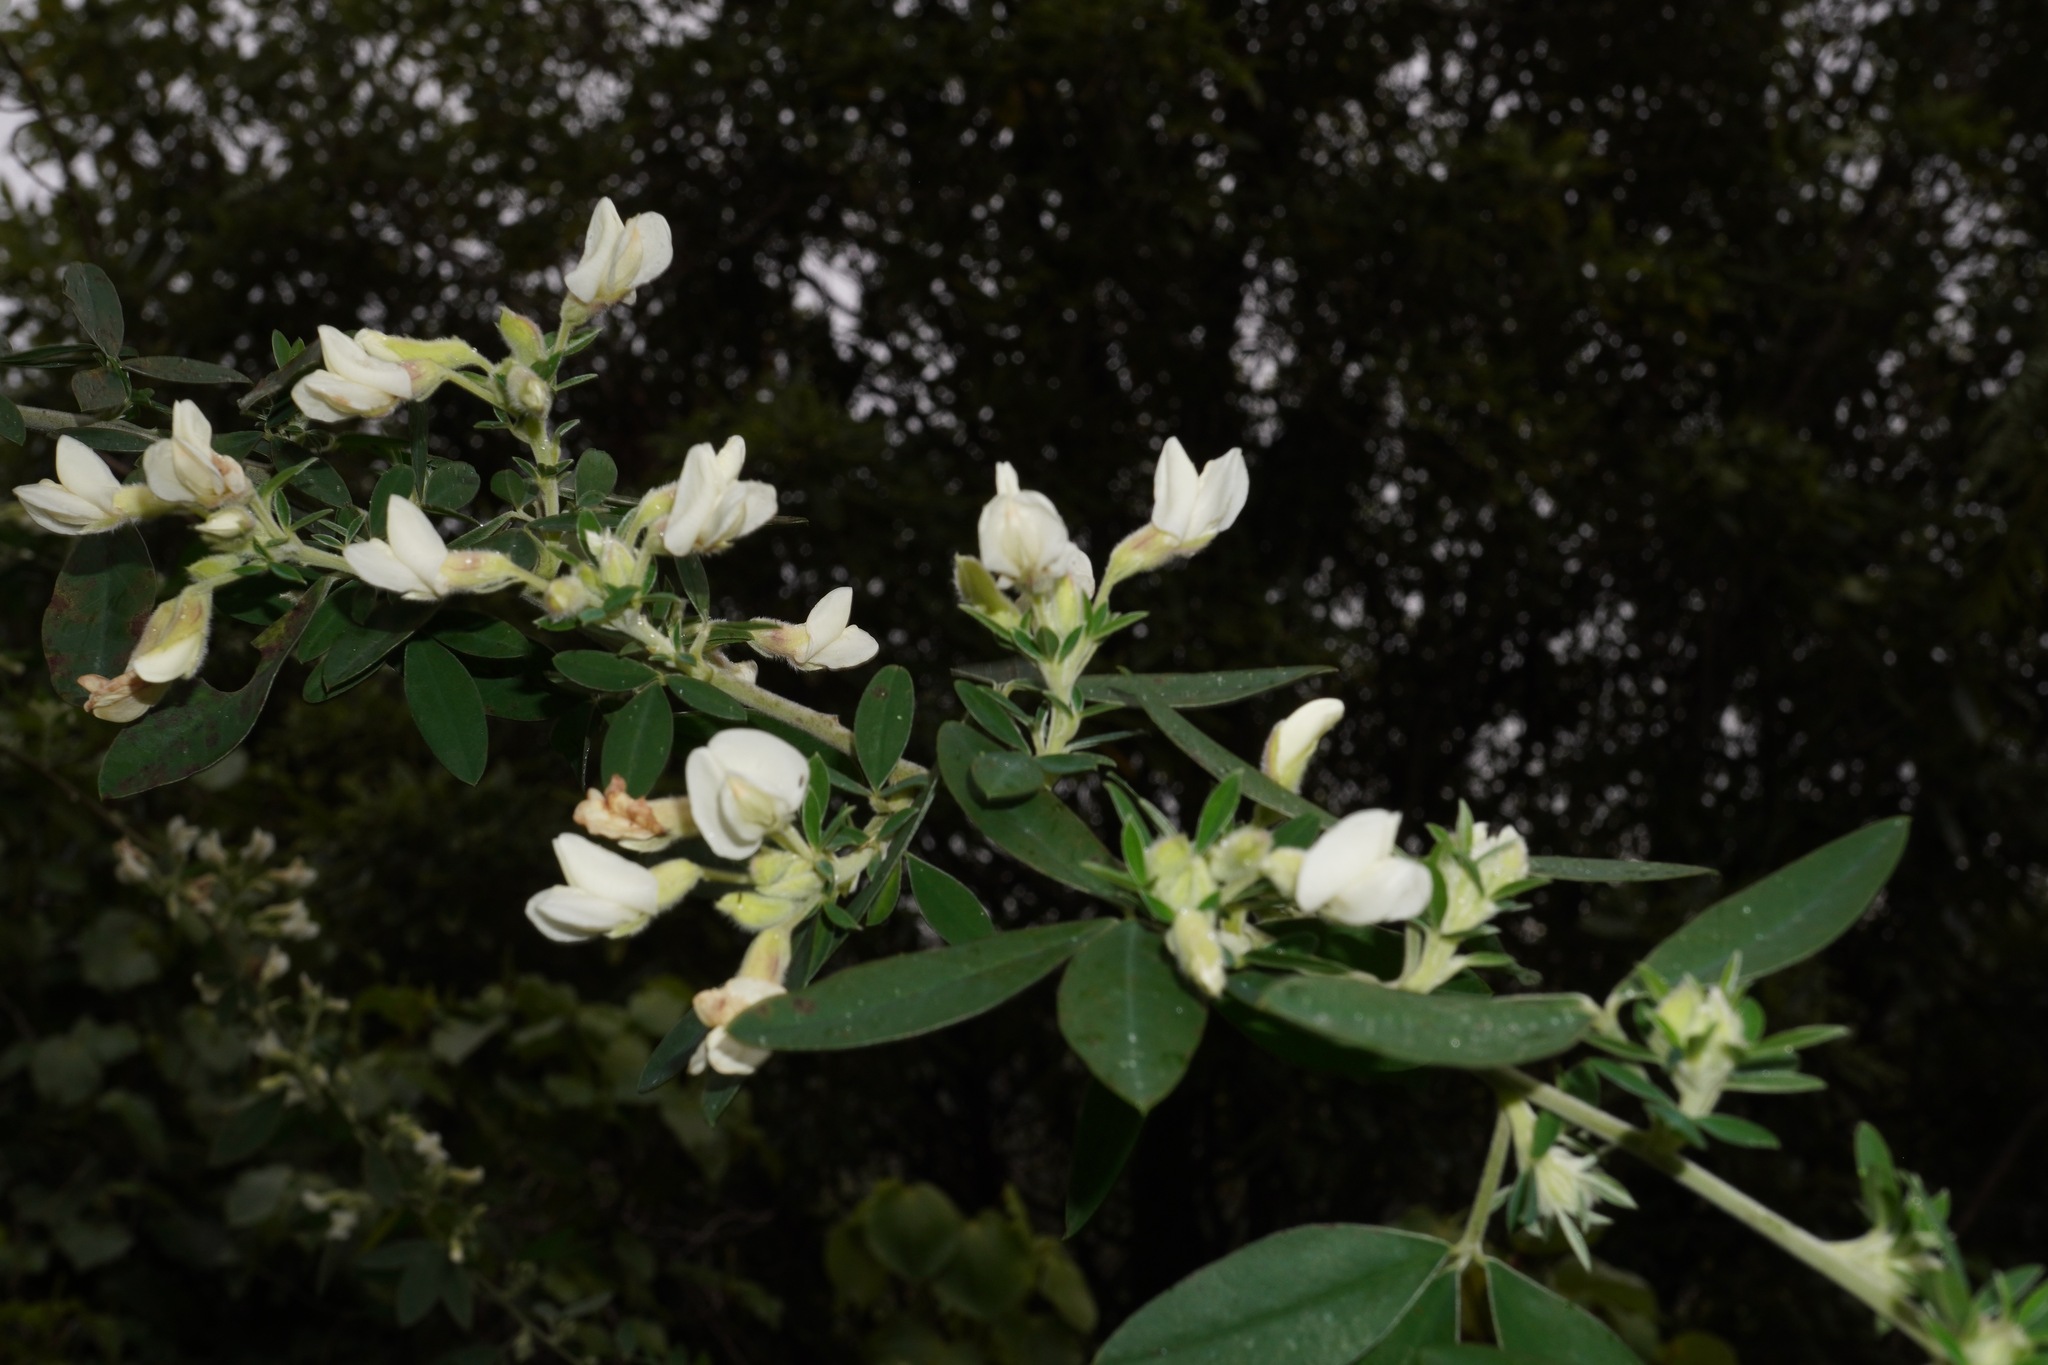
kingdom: Plantae
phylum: Tracheophyta
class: Magnoliopsida
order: Fabales
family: Fabaceae
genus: Chamaecytisus
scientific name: Chamaecytisus prolifer
